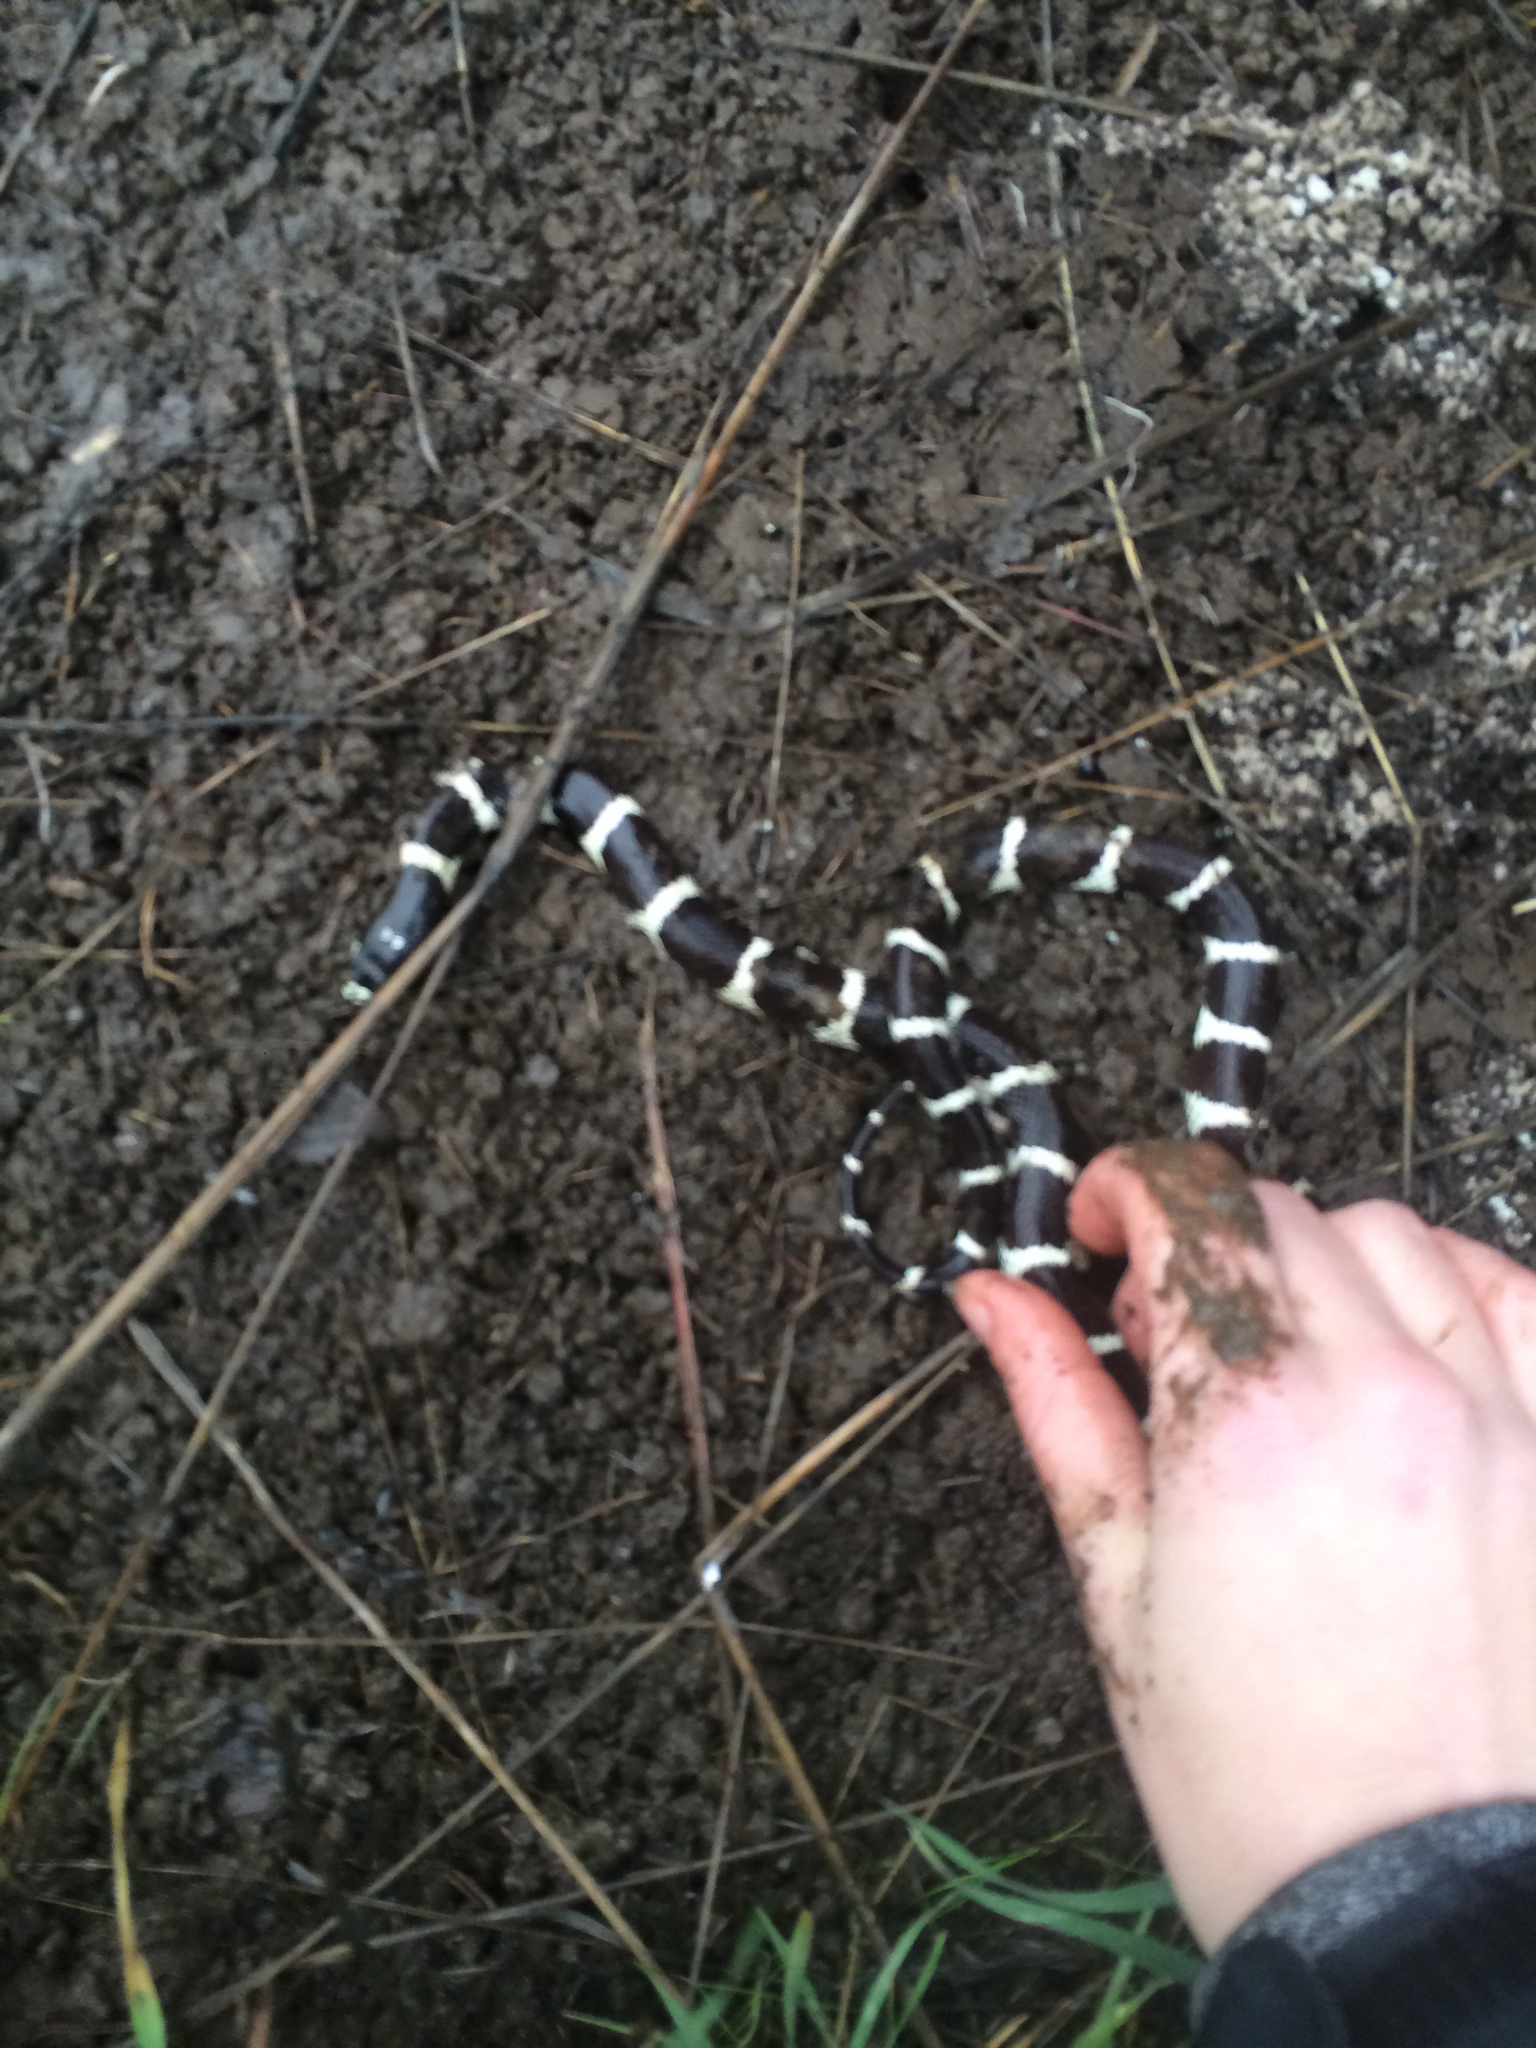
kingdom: Animalia
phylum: Chordata
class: Squamata
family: Colubridae
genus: Lampropeltis
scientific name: Lampropeltis californiae
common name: California kingsnake
